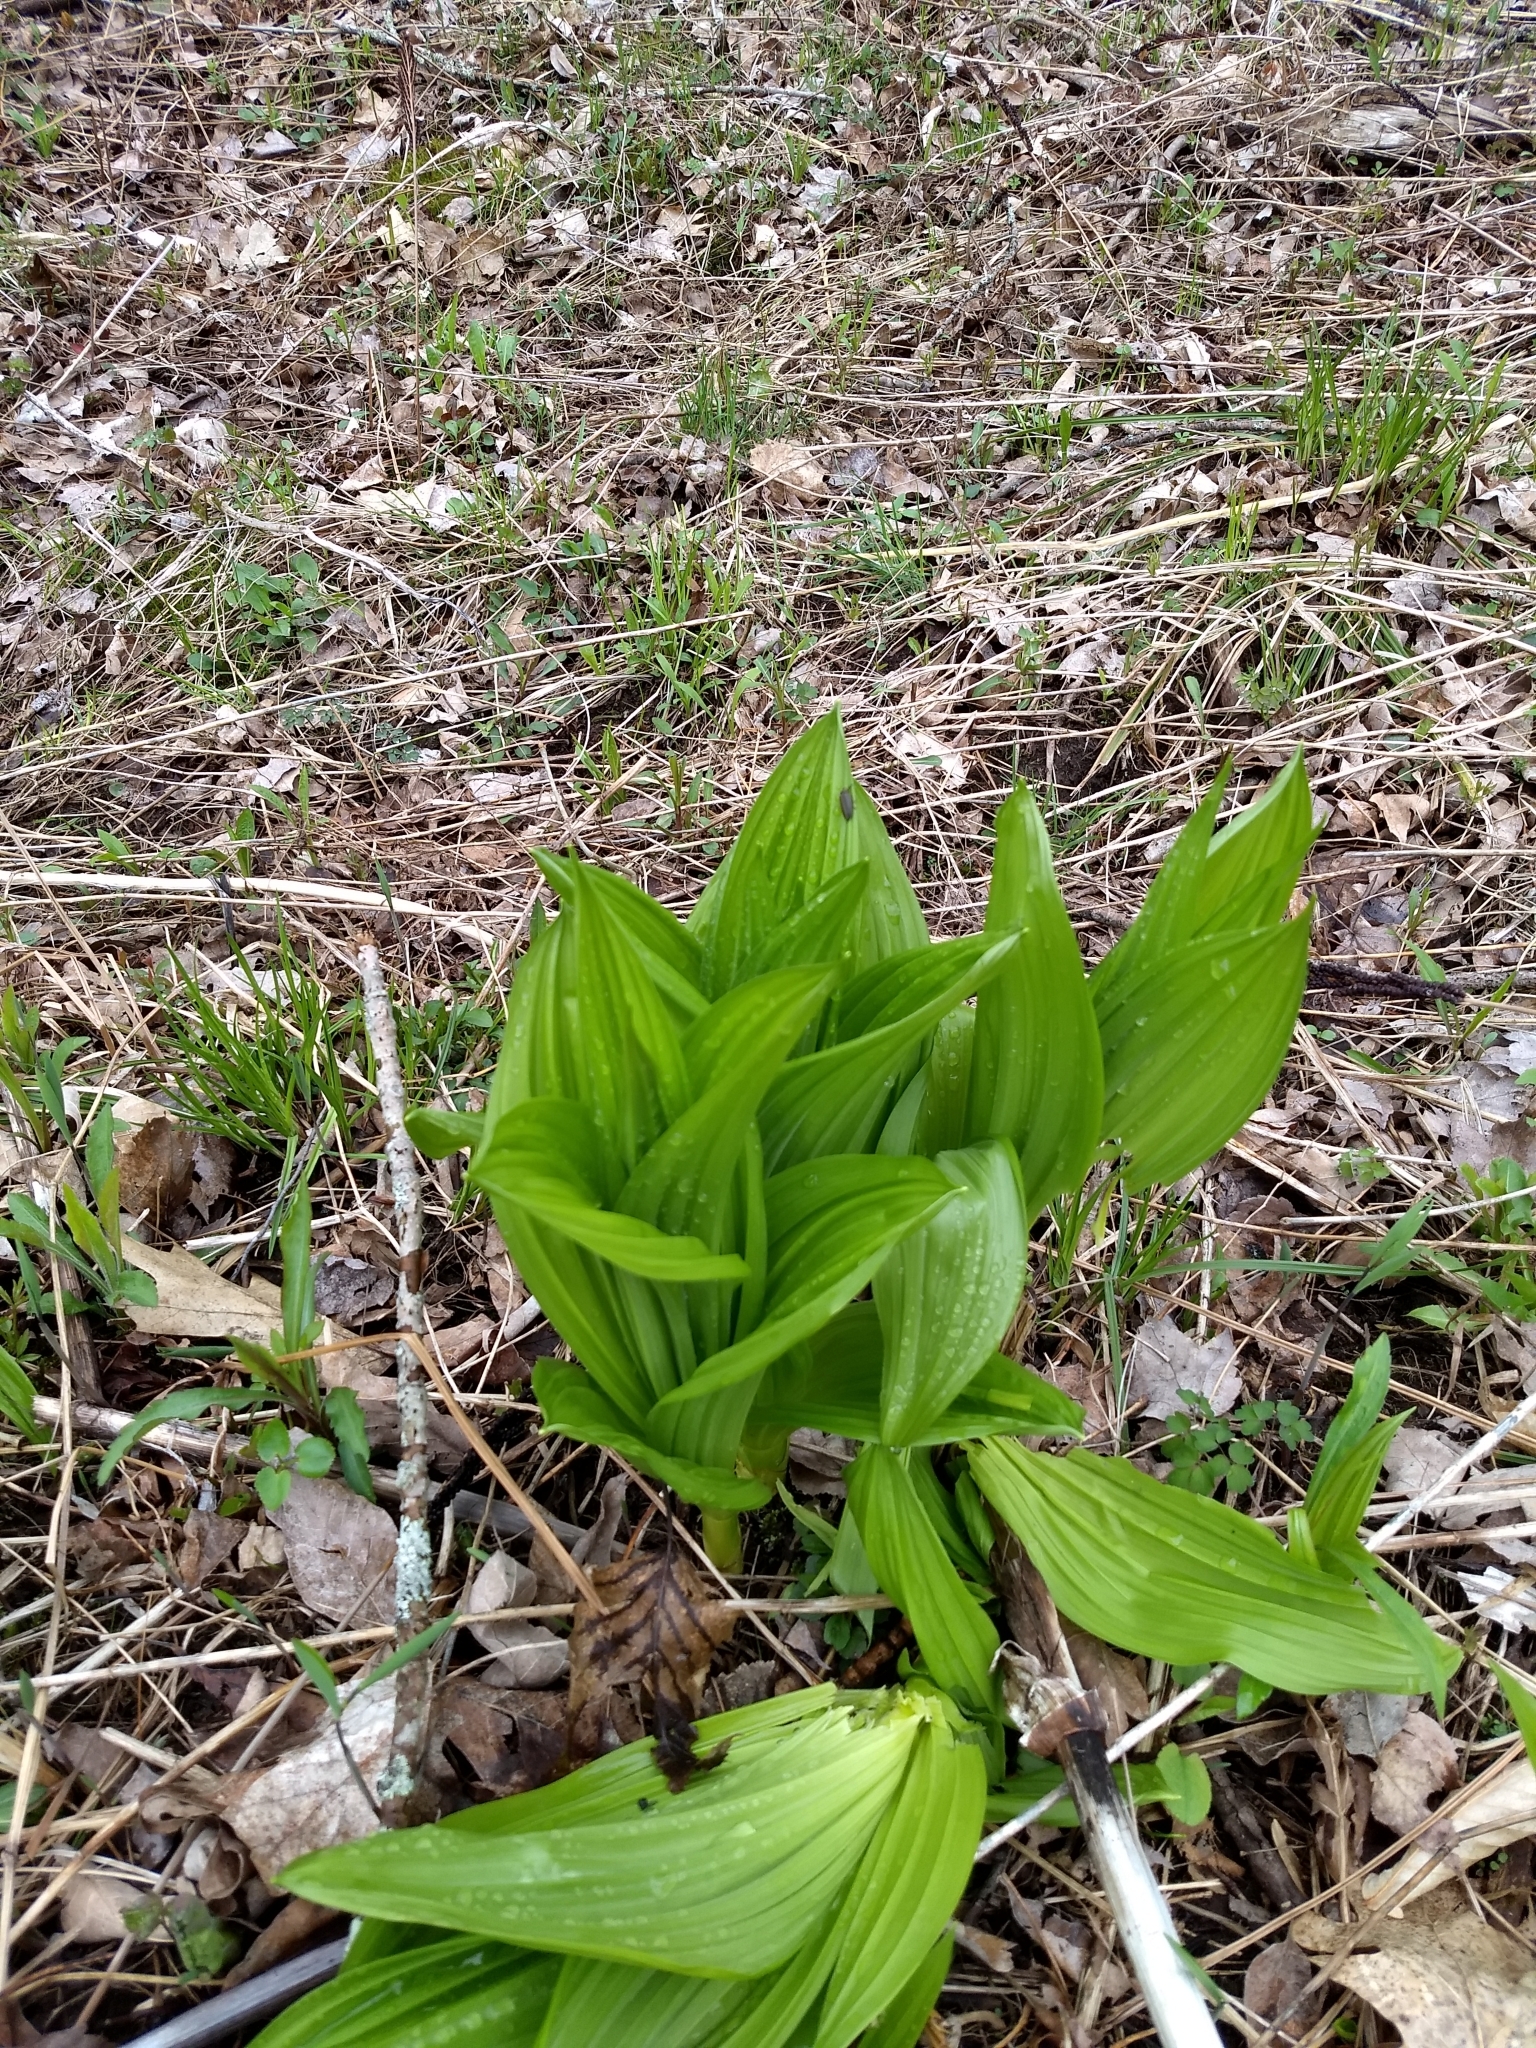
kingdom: Plantae
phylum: Tracheophyta
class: Liliopsida
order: Liliales
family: Melanthiaceae
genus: Veratrum
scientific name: Veratrum viride
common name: American false hellebore
